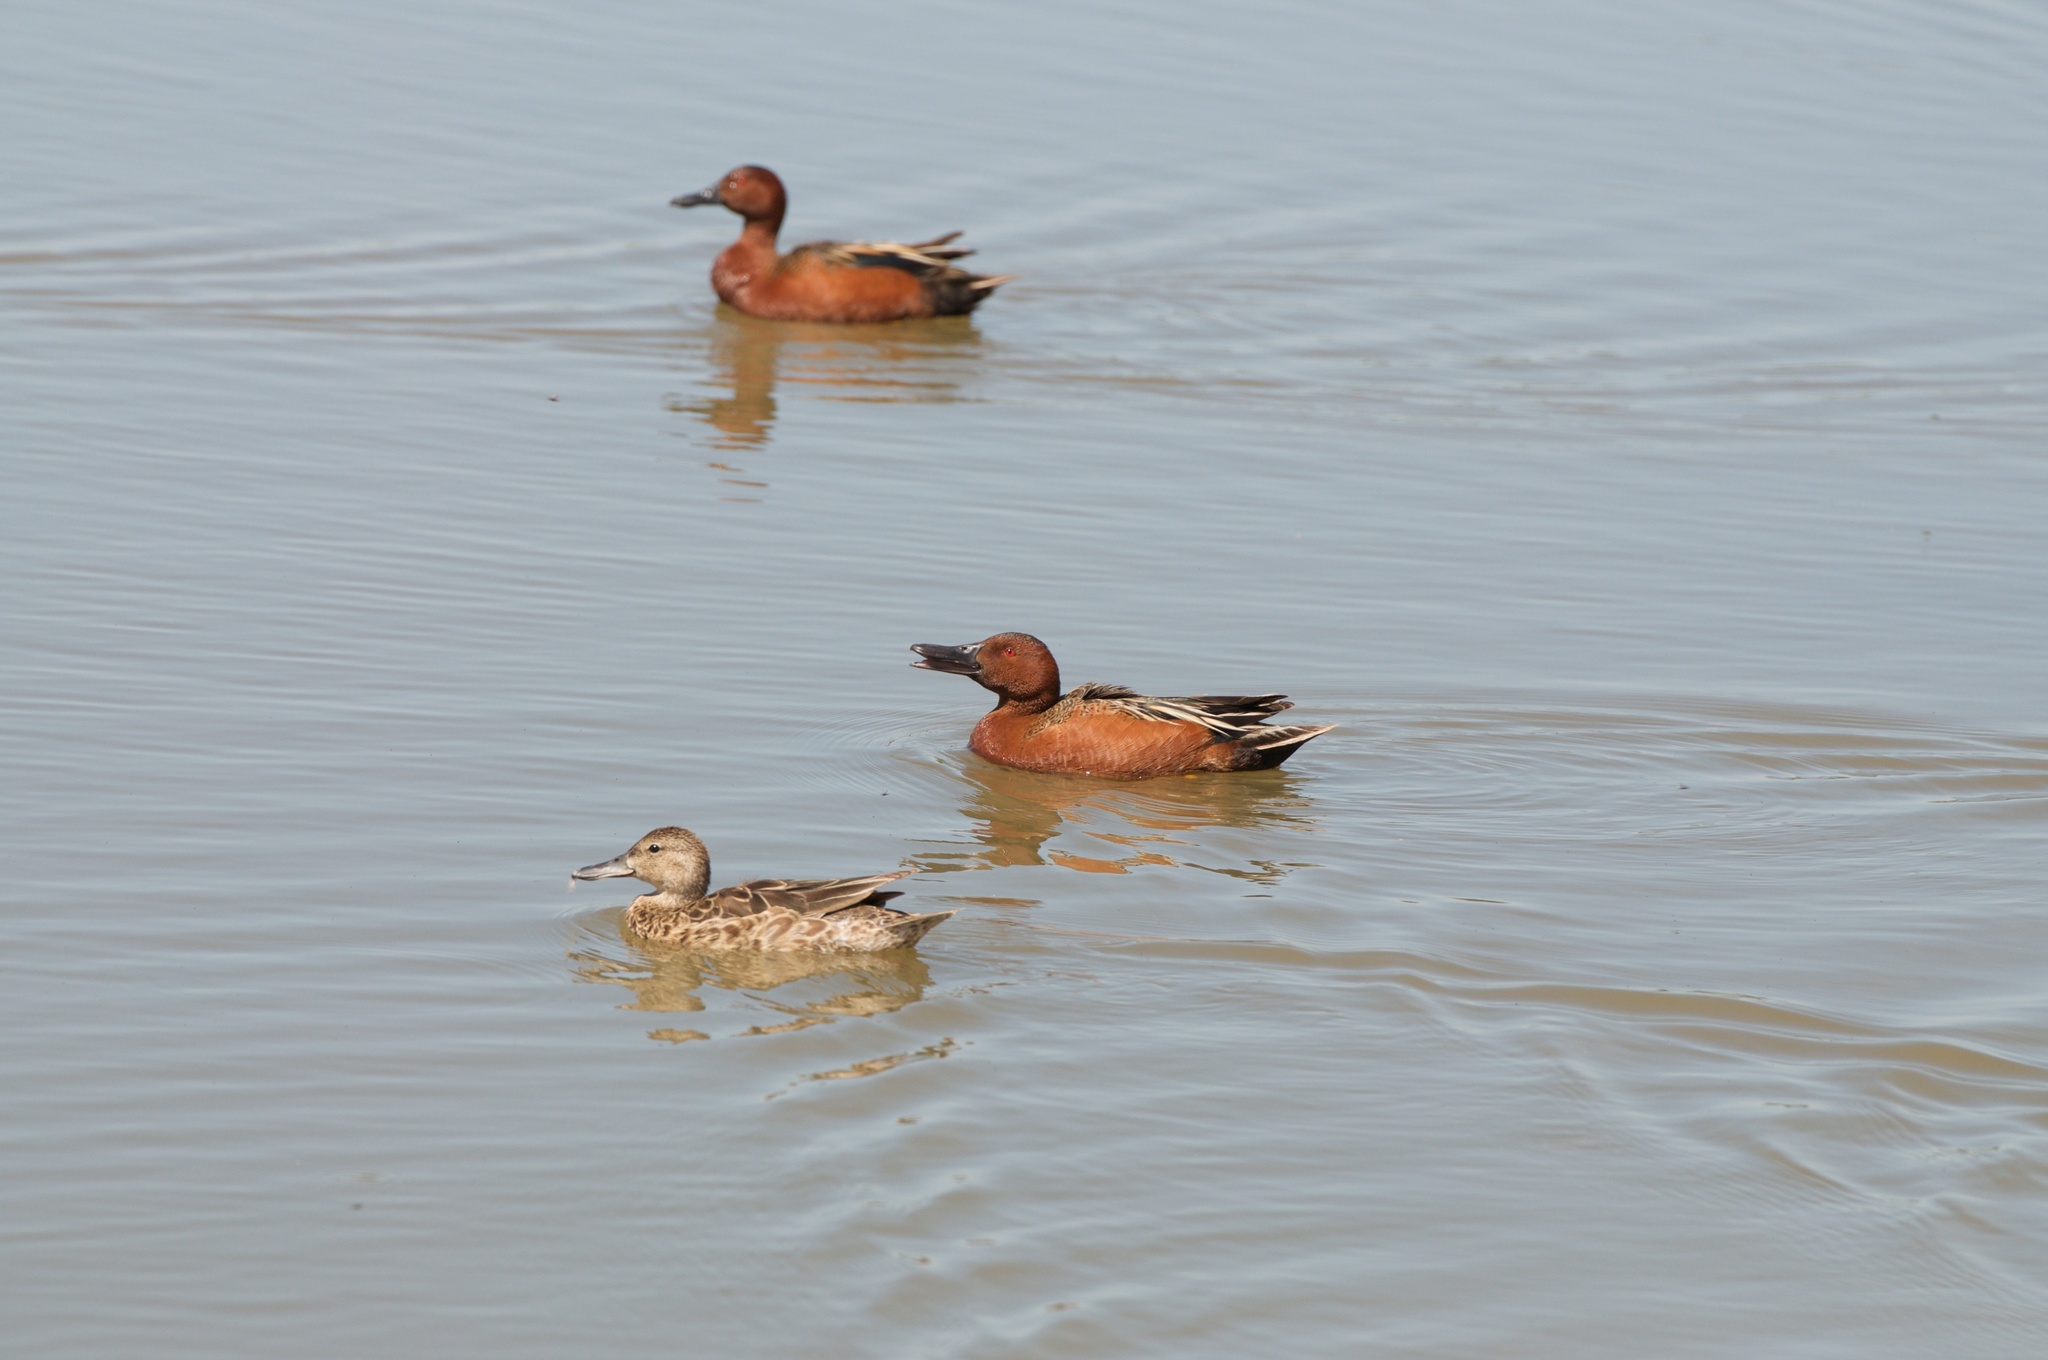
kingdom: Animalia
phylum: Chordata
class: Aves
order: Anseriformes
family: Anatidae
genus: Spatula
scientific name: Spatula cyanoptera
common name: Cinnamon teal
